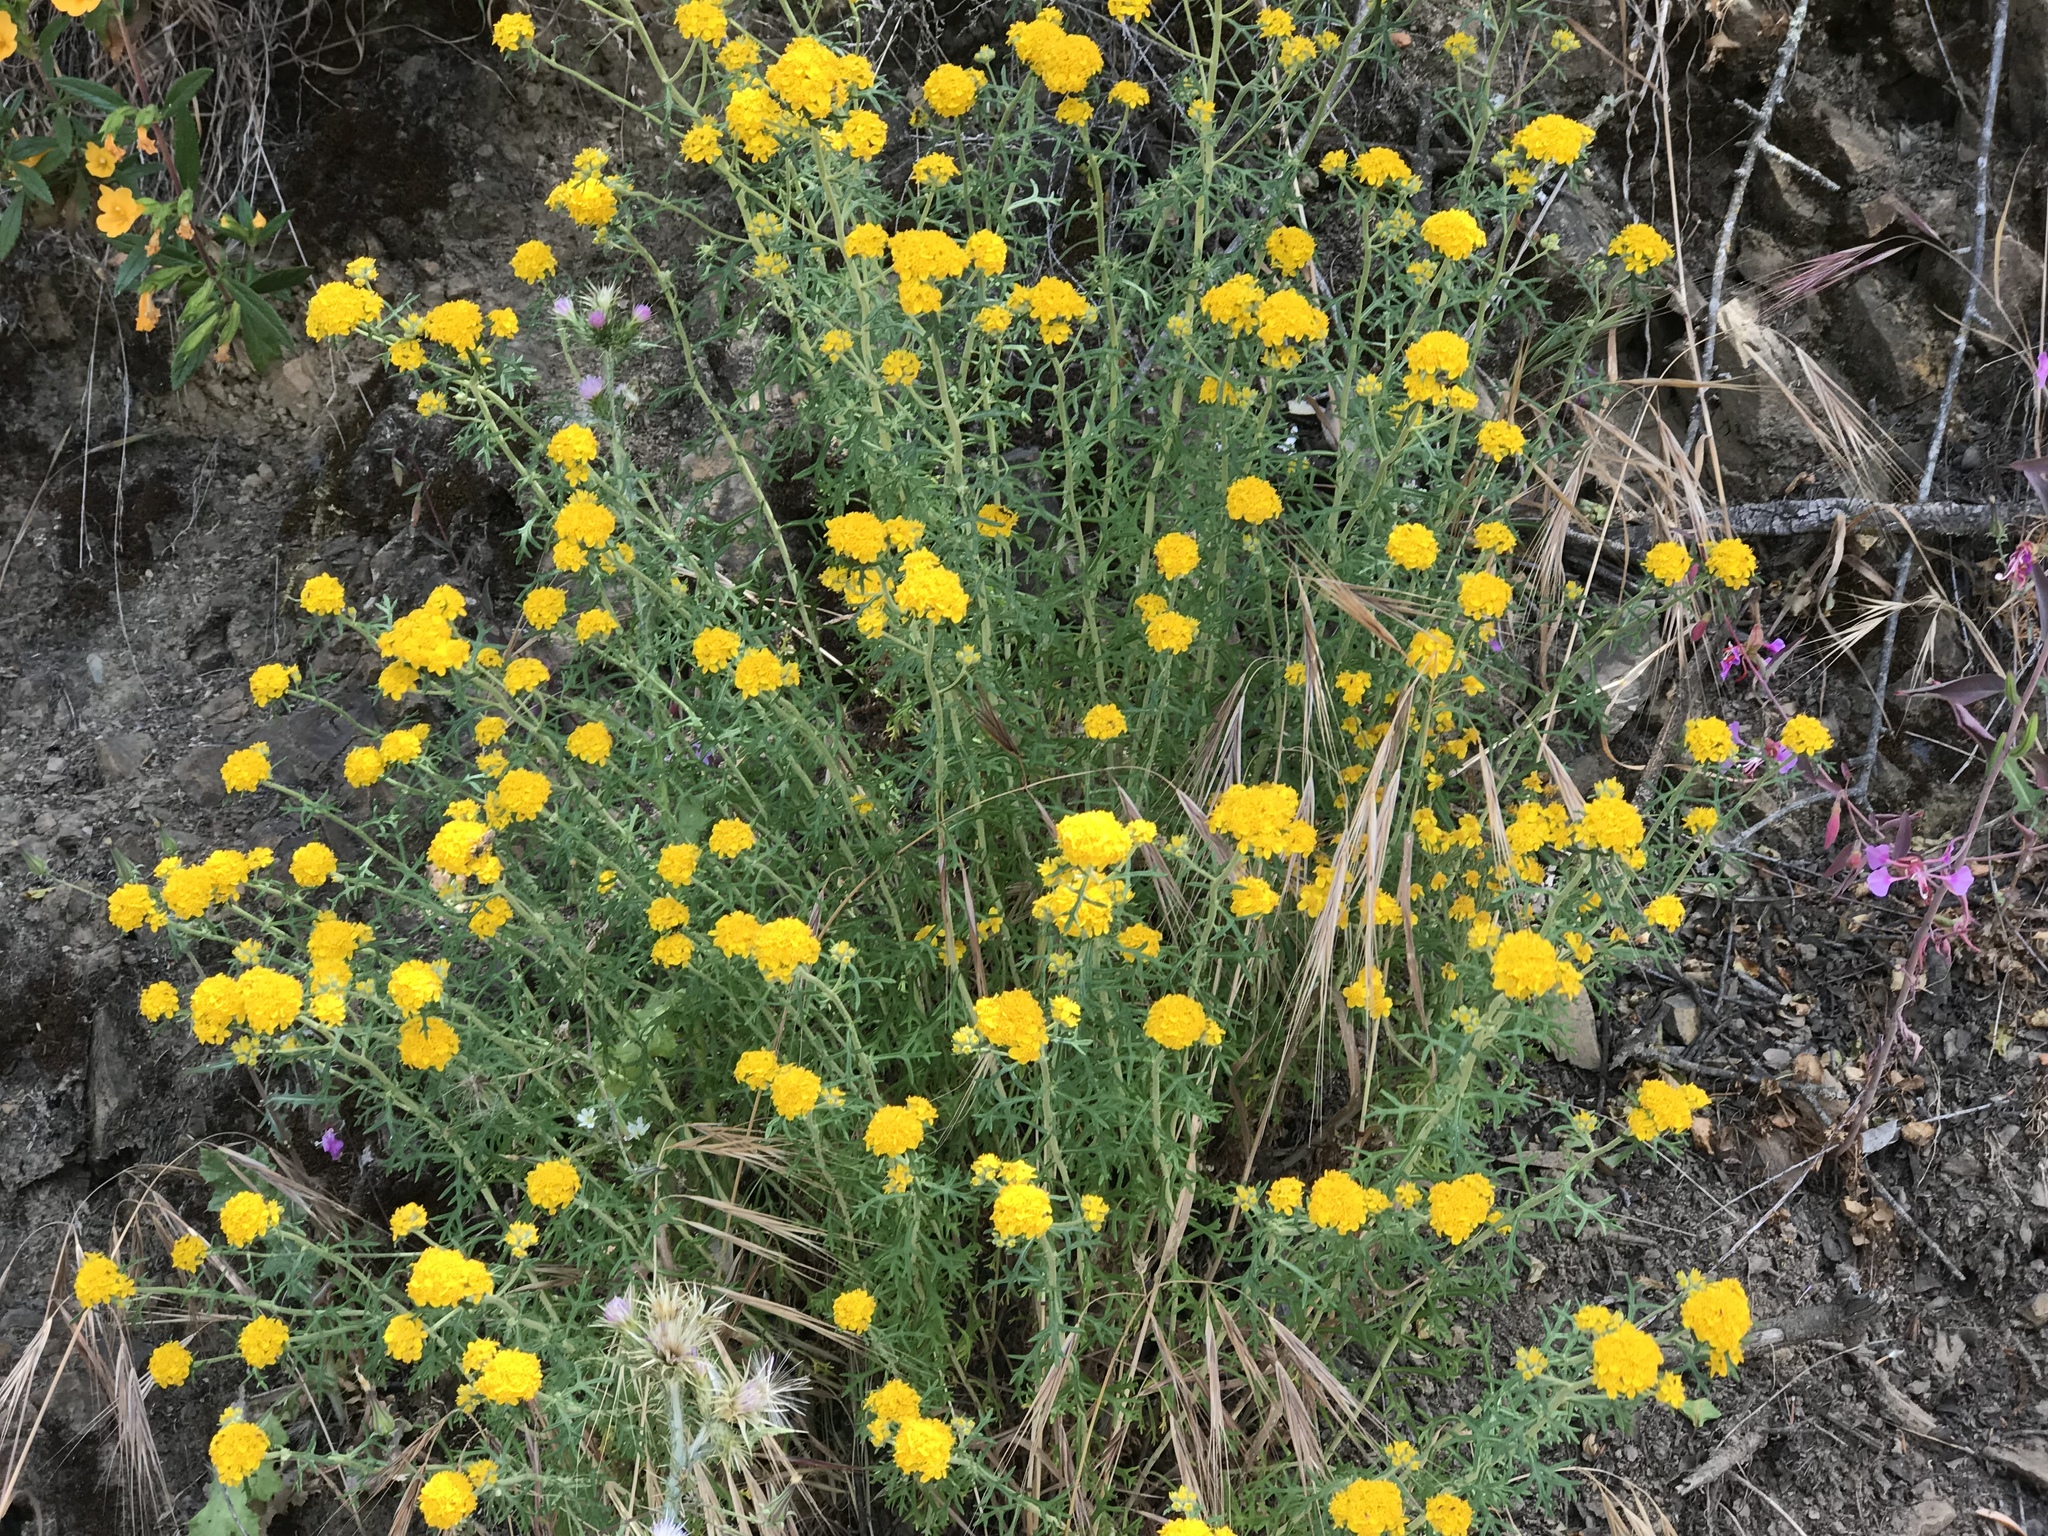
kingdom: Plantae
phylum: Tracheophyta
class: Magnoliopsida
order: Asterales
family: Asteraceae
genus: Eriophyllum
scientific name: Eriophyllum confertiflorum
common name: Golden-yarrow
